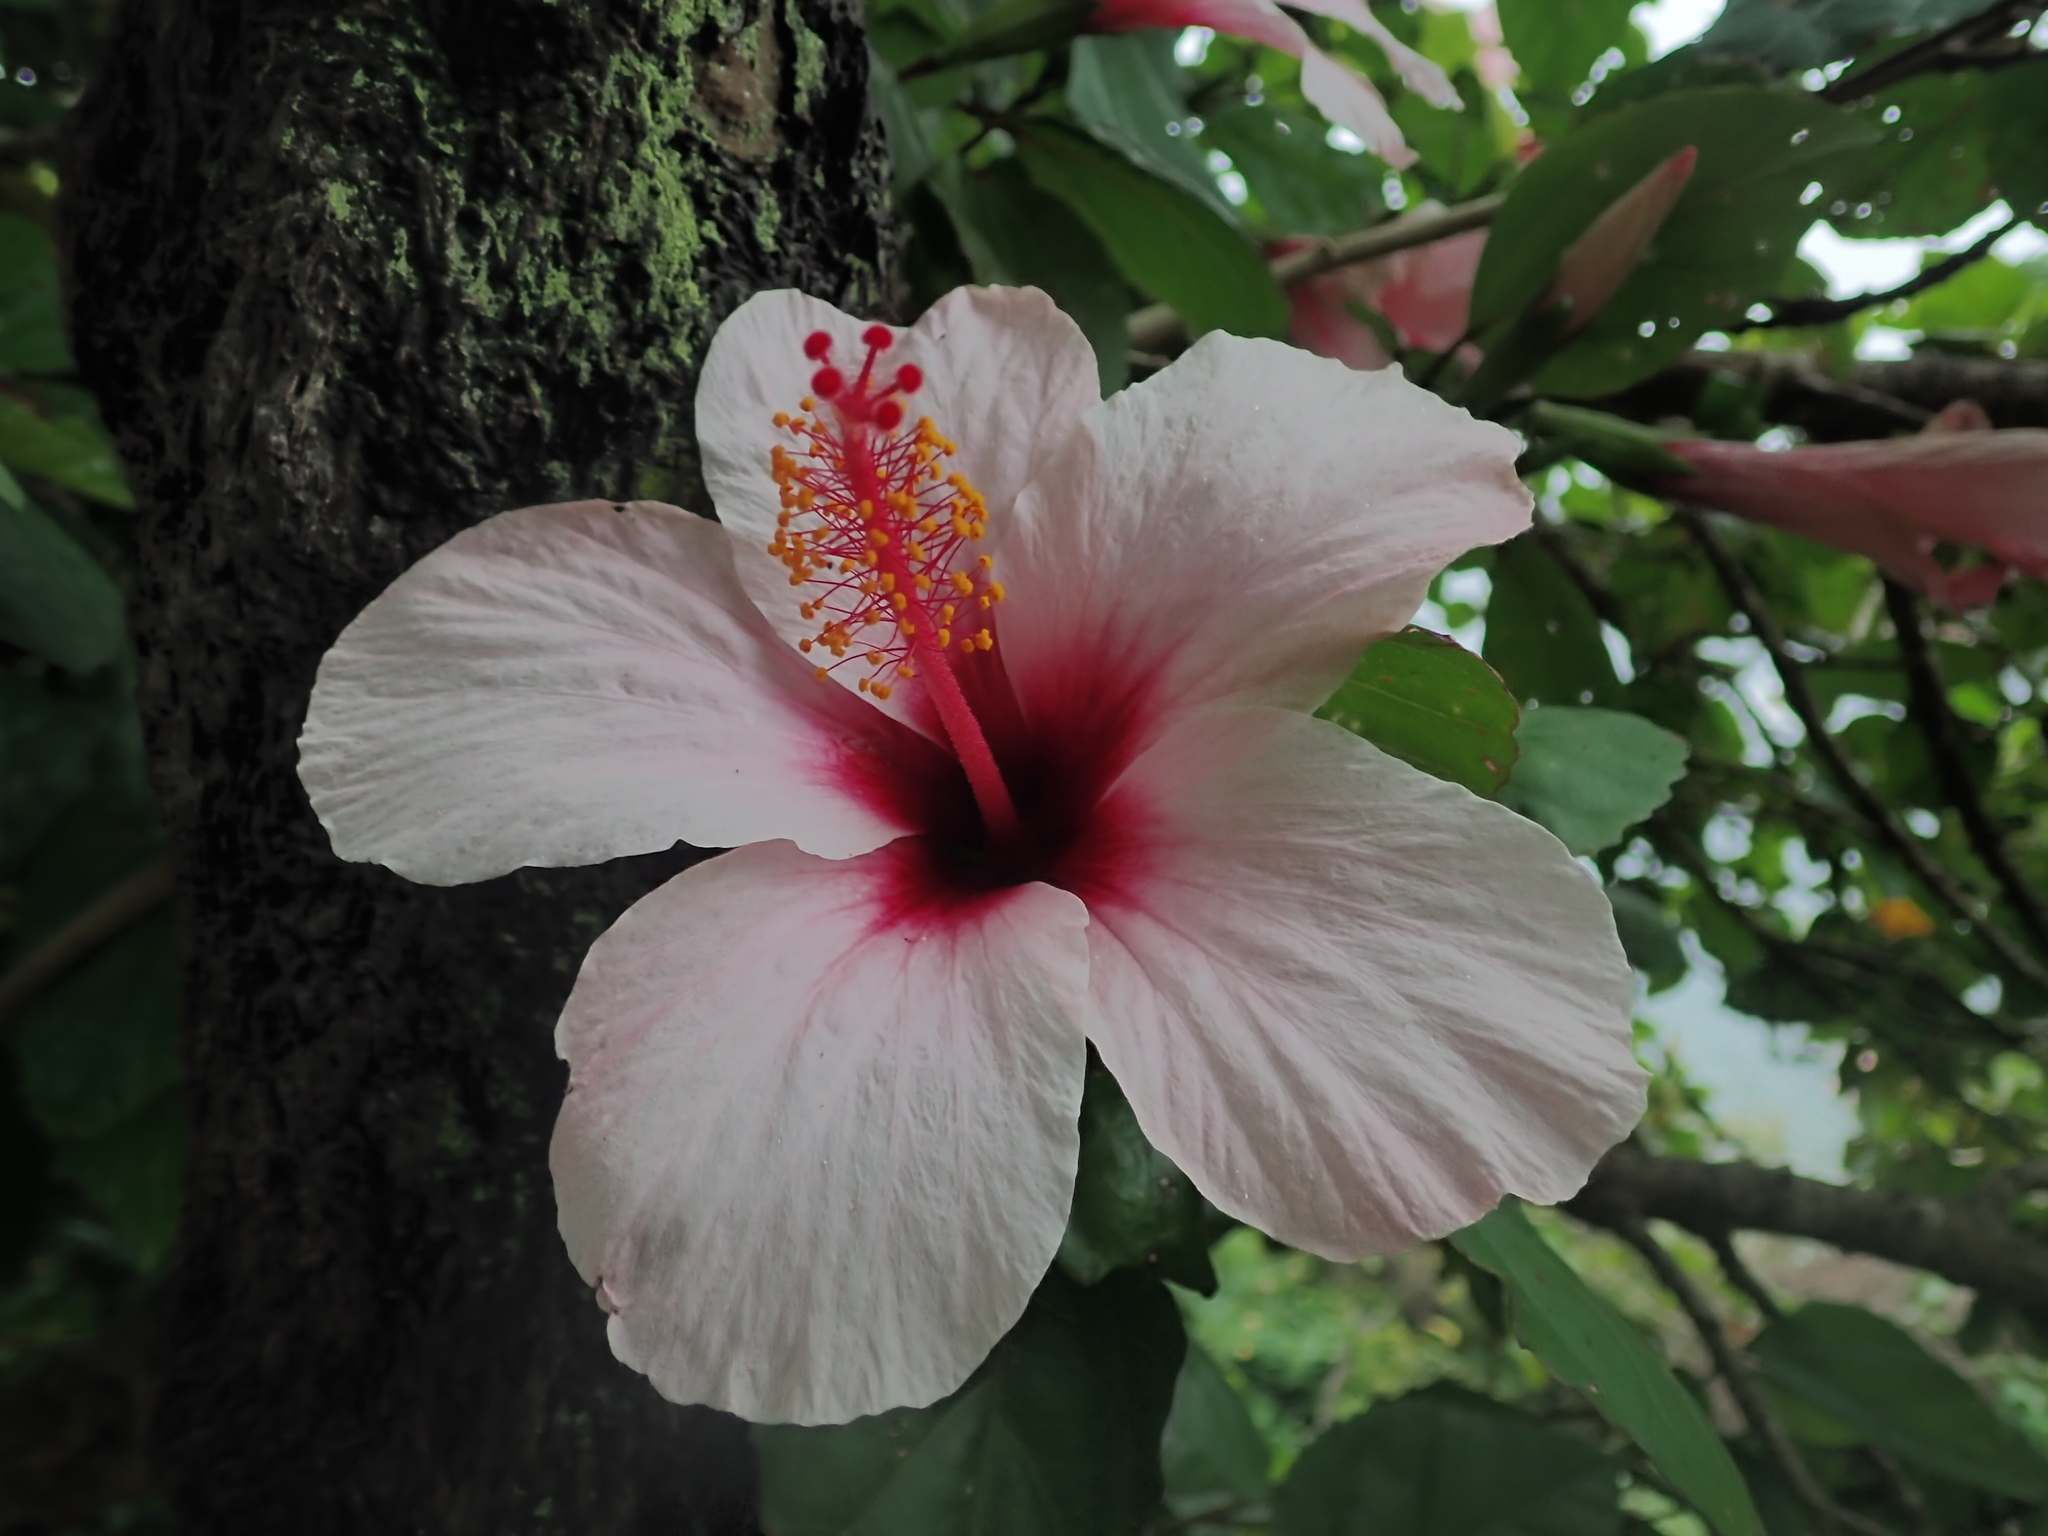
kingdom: Plantae
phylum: Tracheophyta
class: Magnoliopsida
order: Malvales
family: Malvaceae
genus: Hibiscus
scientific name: Hibiscus rosa-sinensis
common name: Hibiscus
